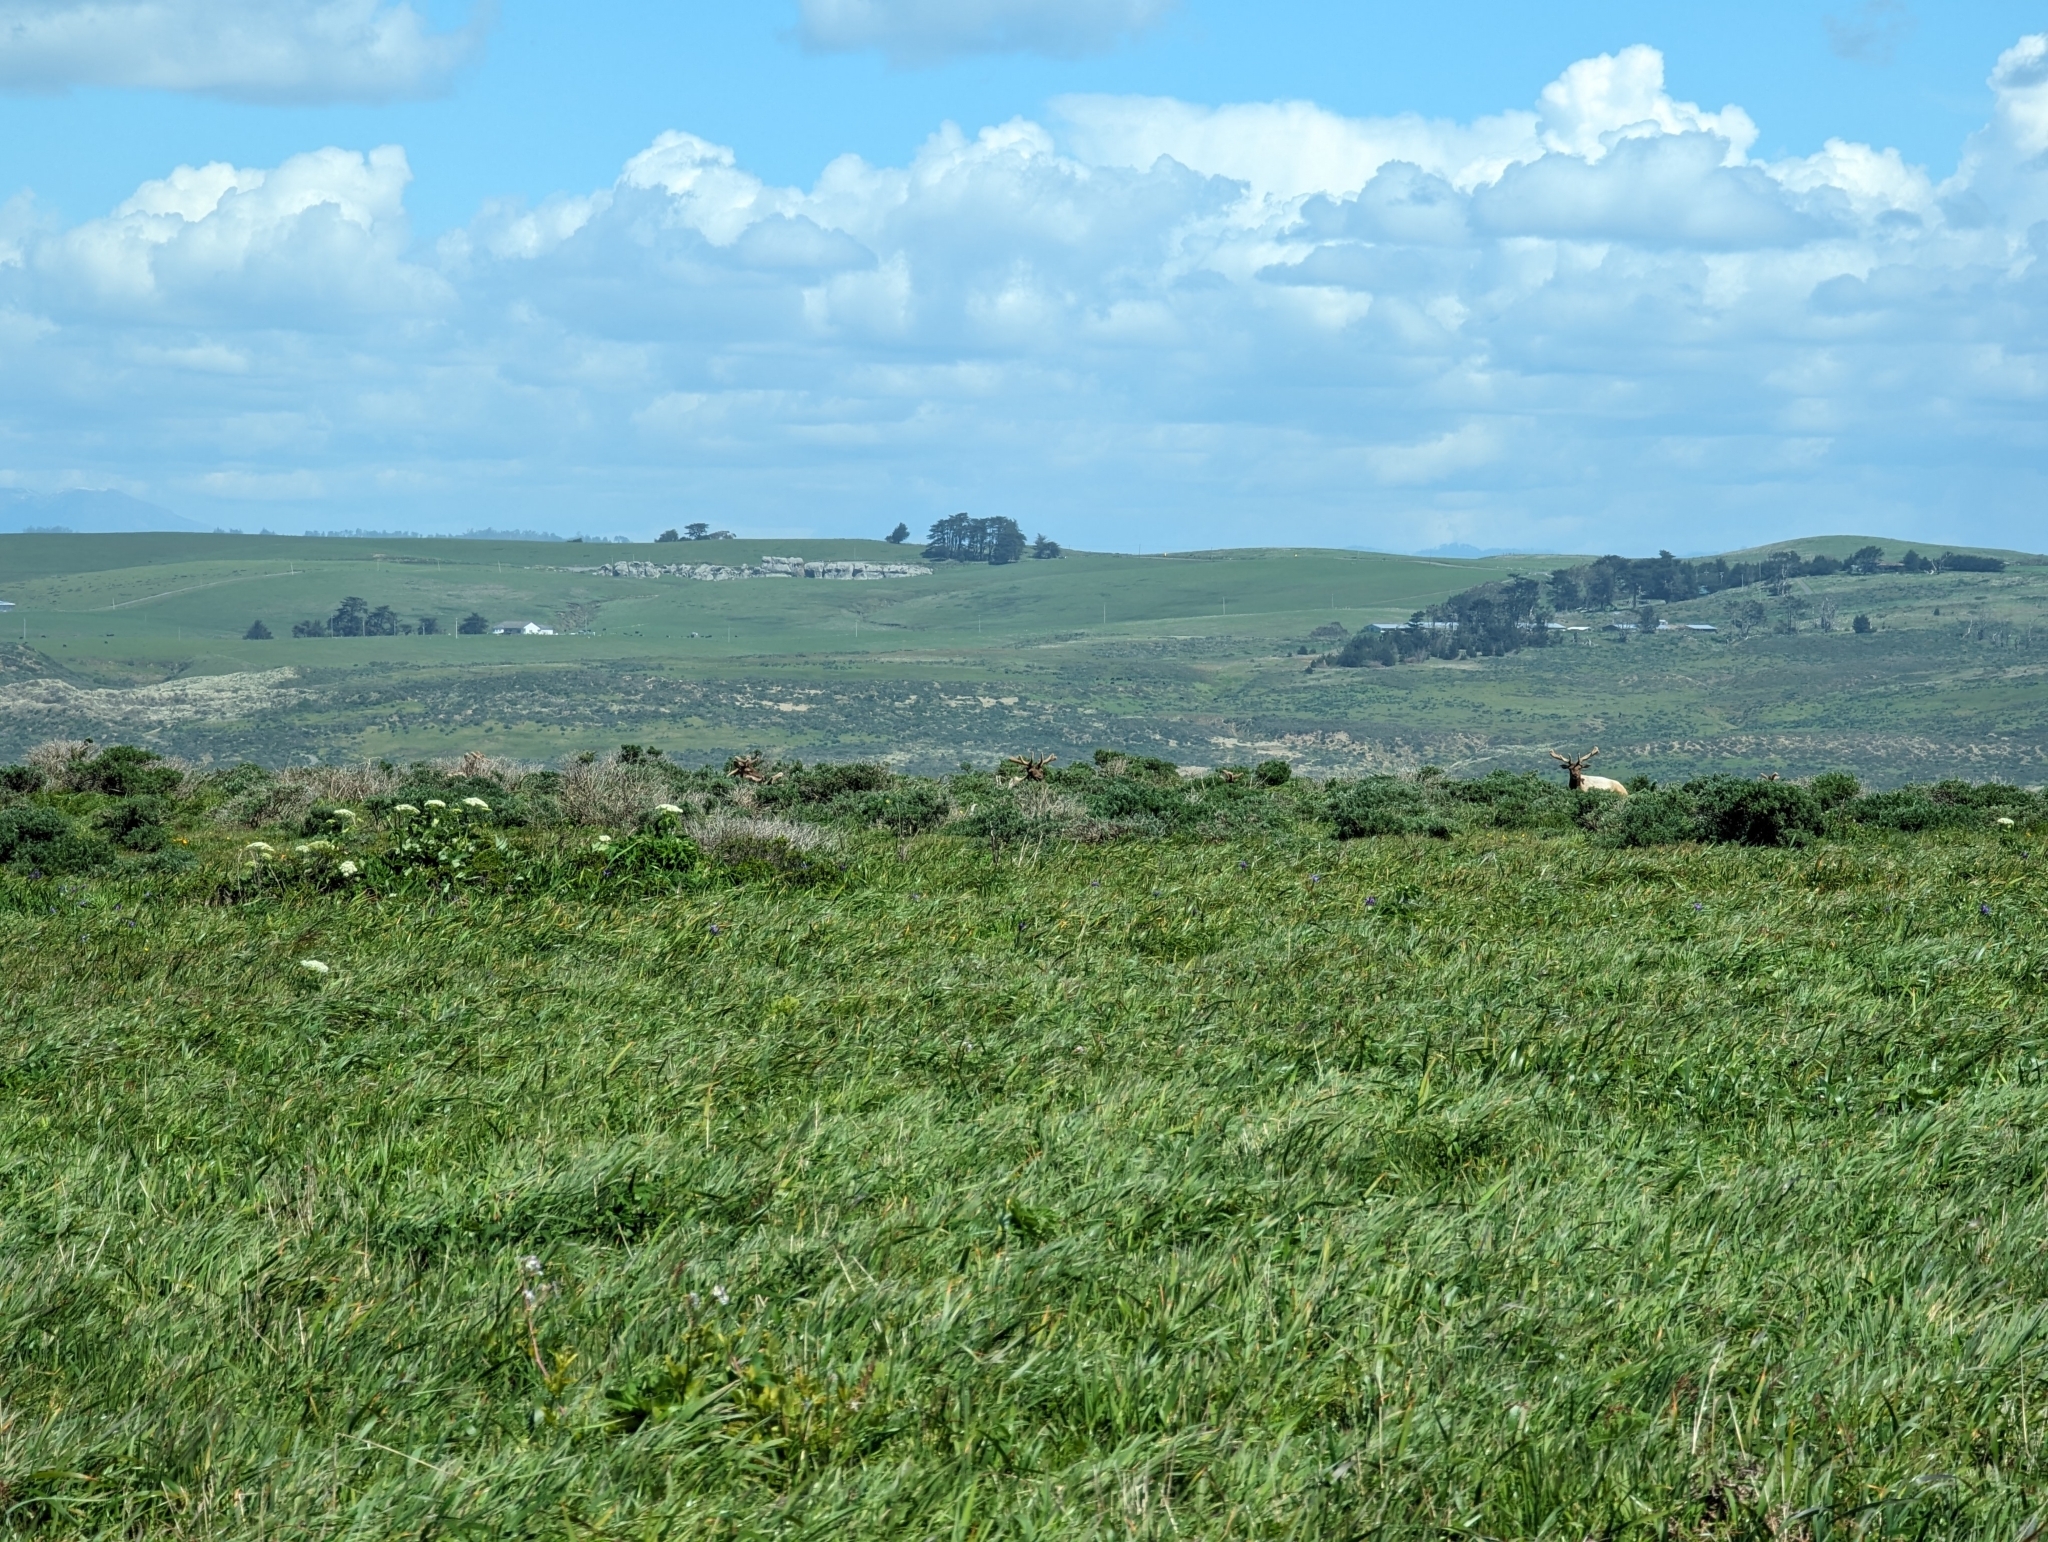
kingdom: Animalia
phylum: Chordata
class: Mammalia
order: Artiodactyla
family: Cervidae
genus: Cervus
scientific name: Cervus elaphus
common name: Red deer
